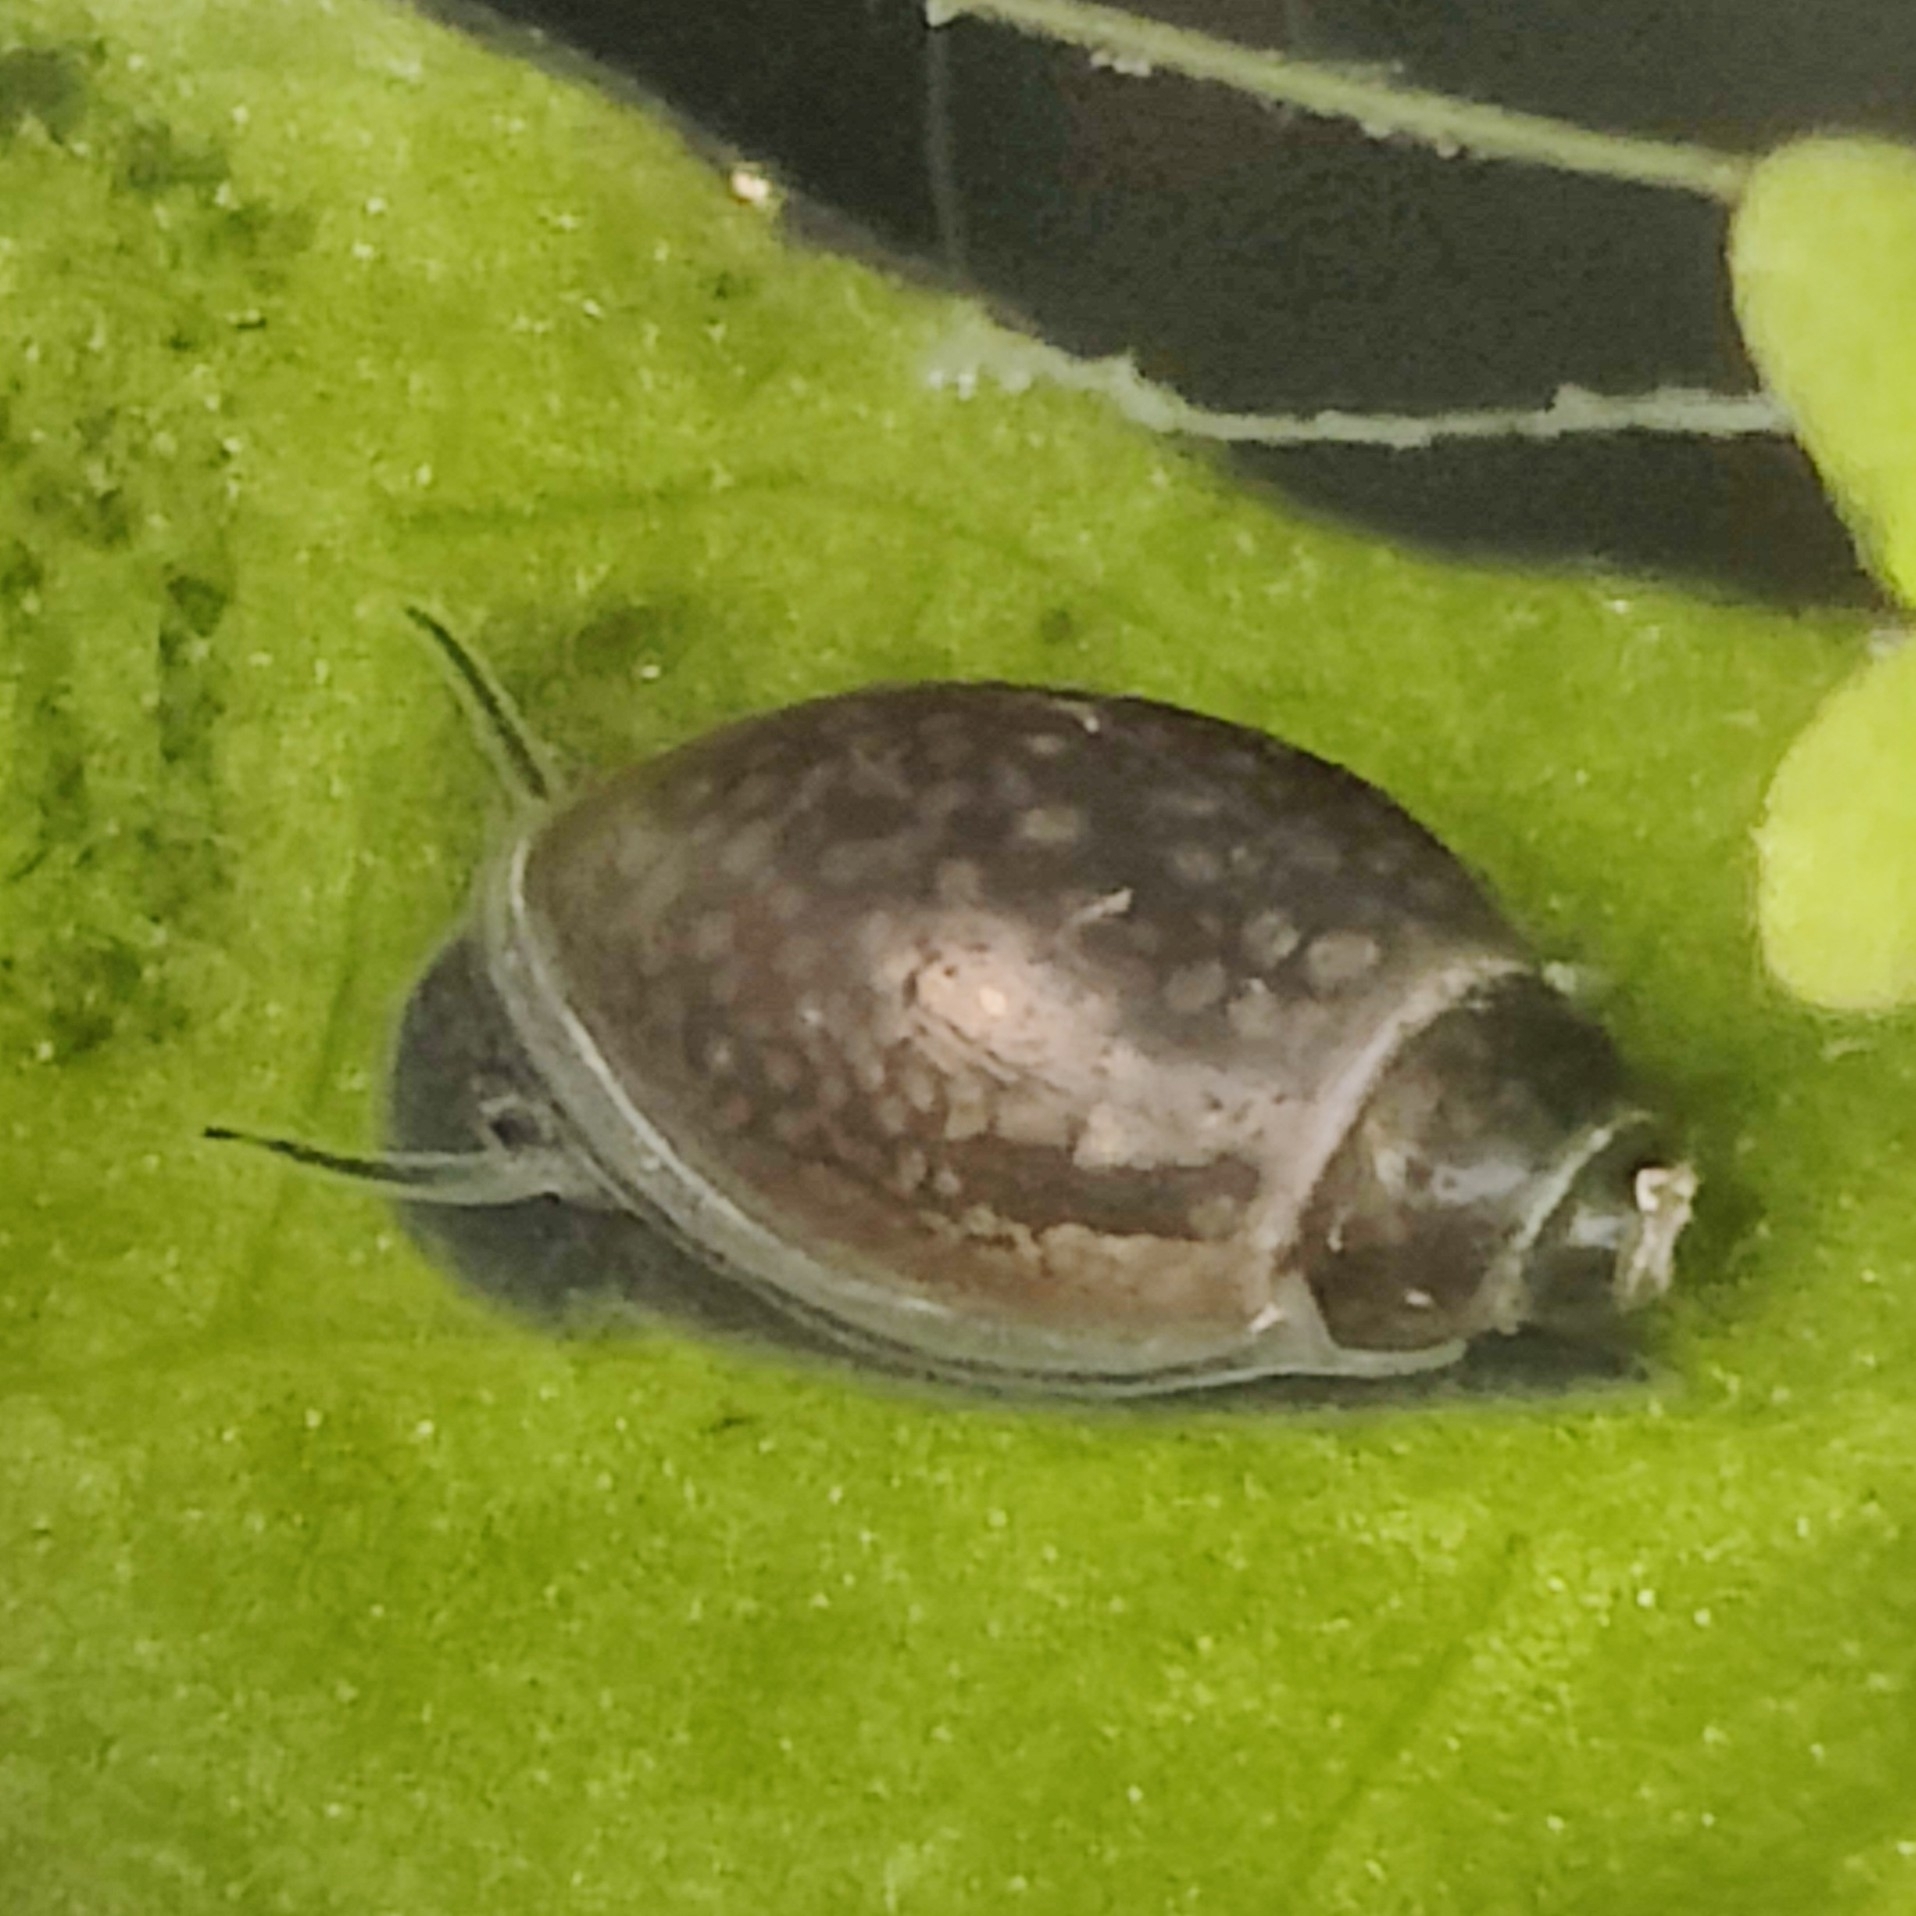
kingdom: Animalia
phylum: Mollusca
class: Gastropoda
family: Physidae
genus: Physella
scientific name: Physella acuta
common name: European physa
